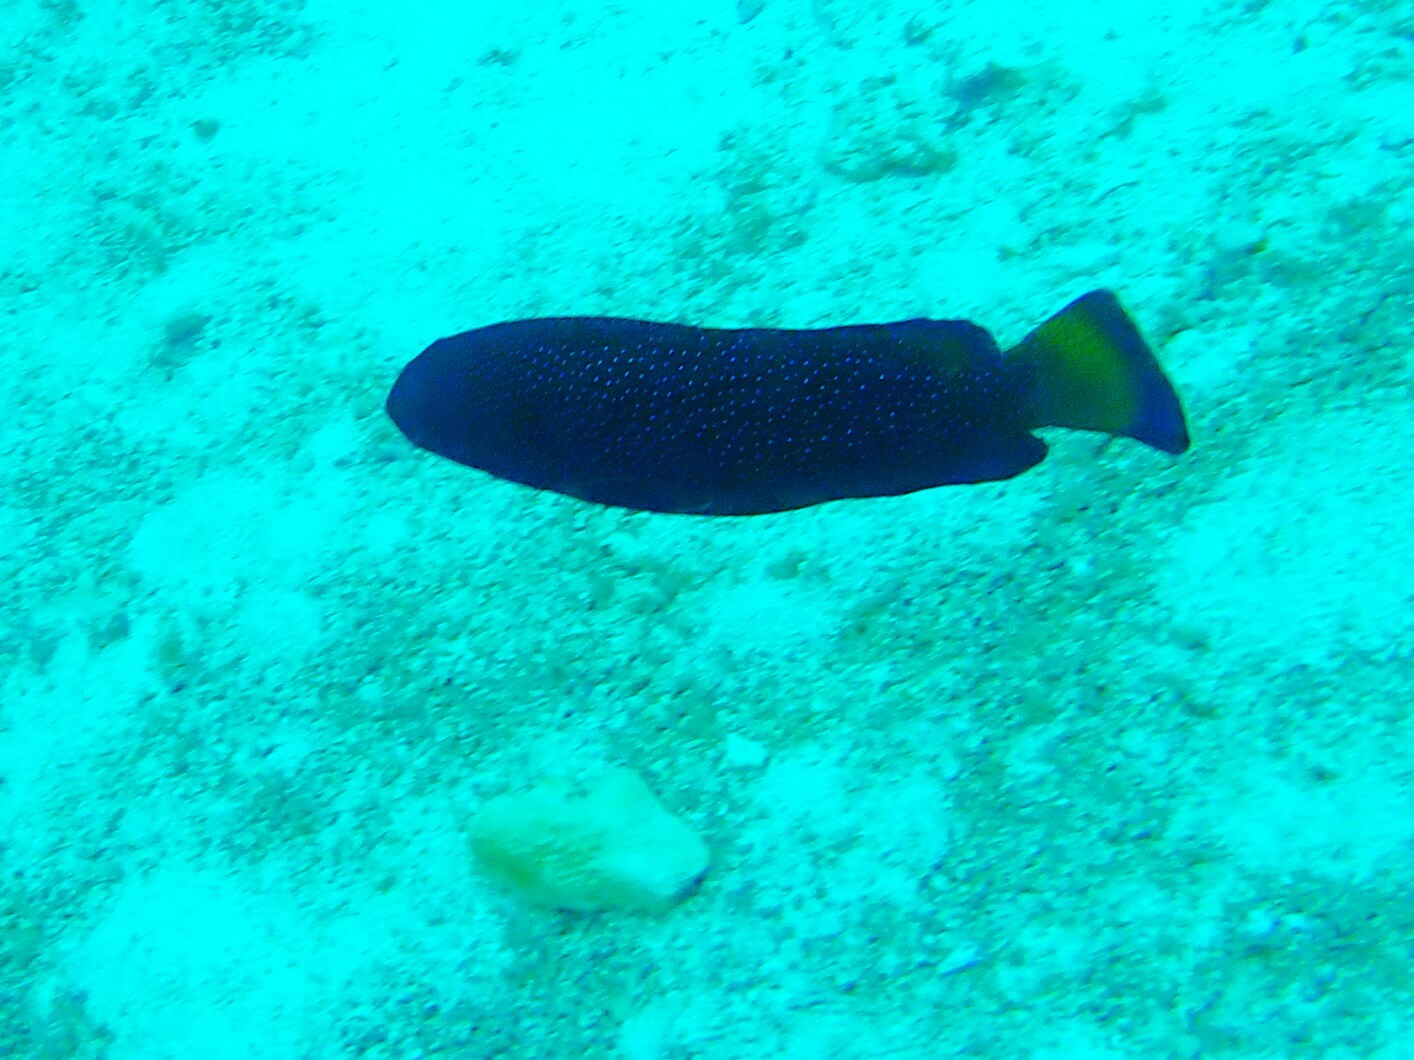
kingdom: Animalia
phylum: Chordata
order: Perciformes
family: Serranidae
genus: Cephalopholis
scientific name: Cephalopholis argus
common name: Peacock grouper
